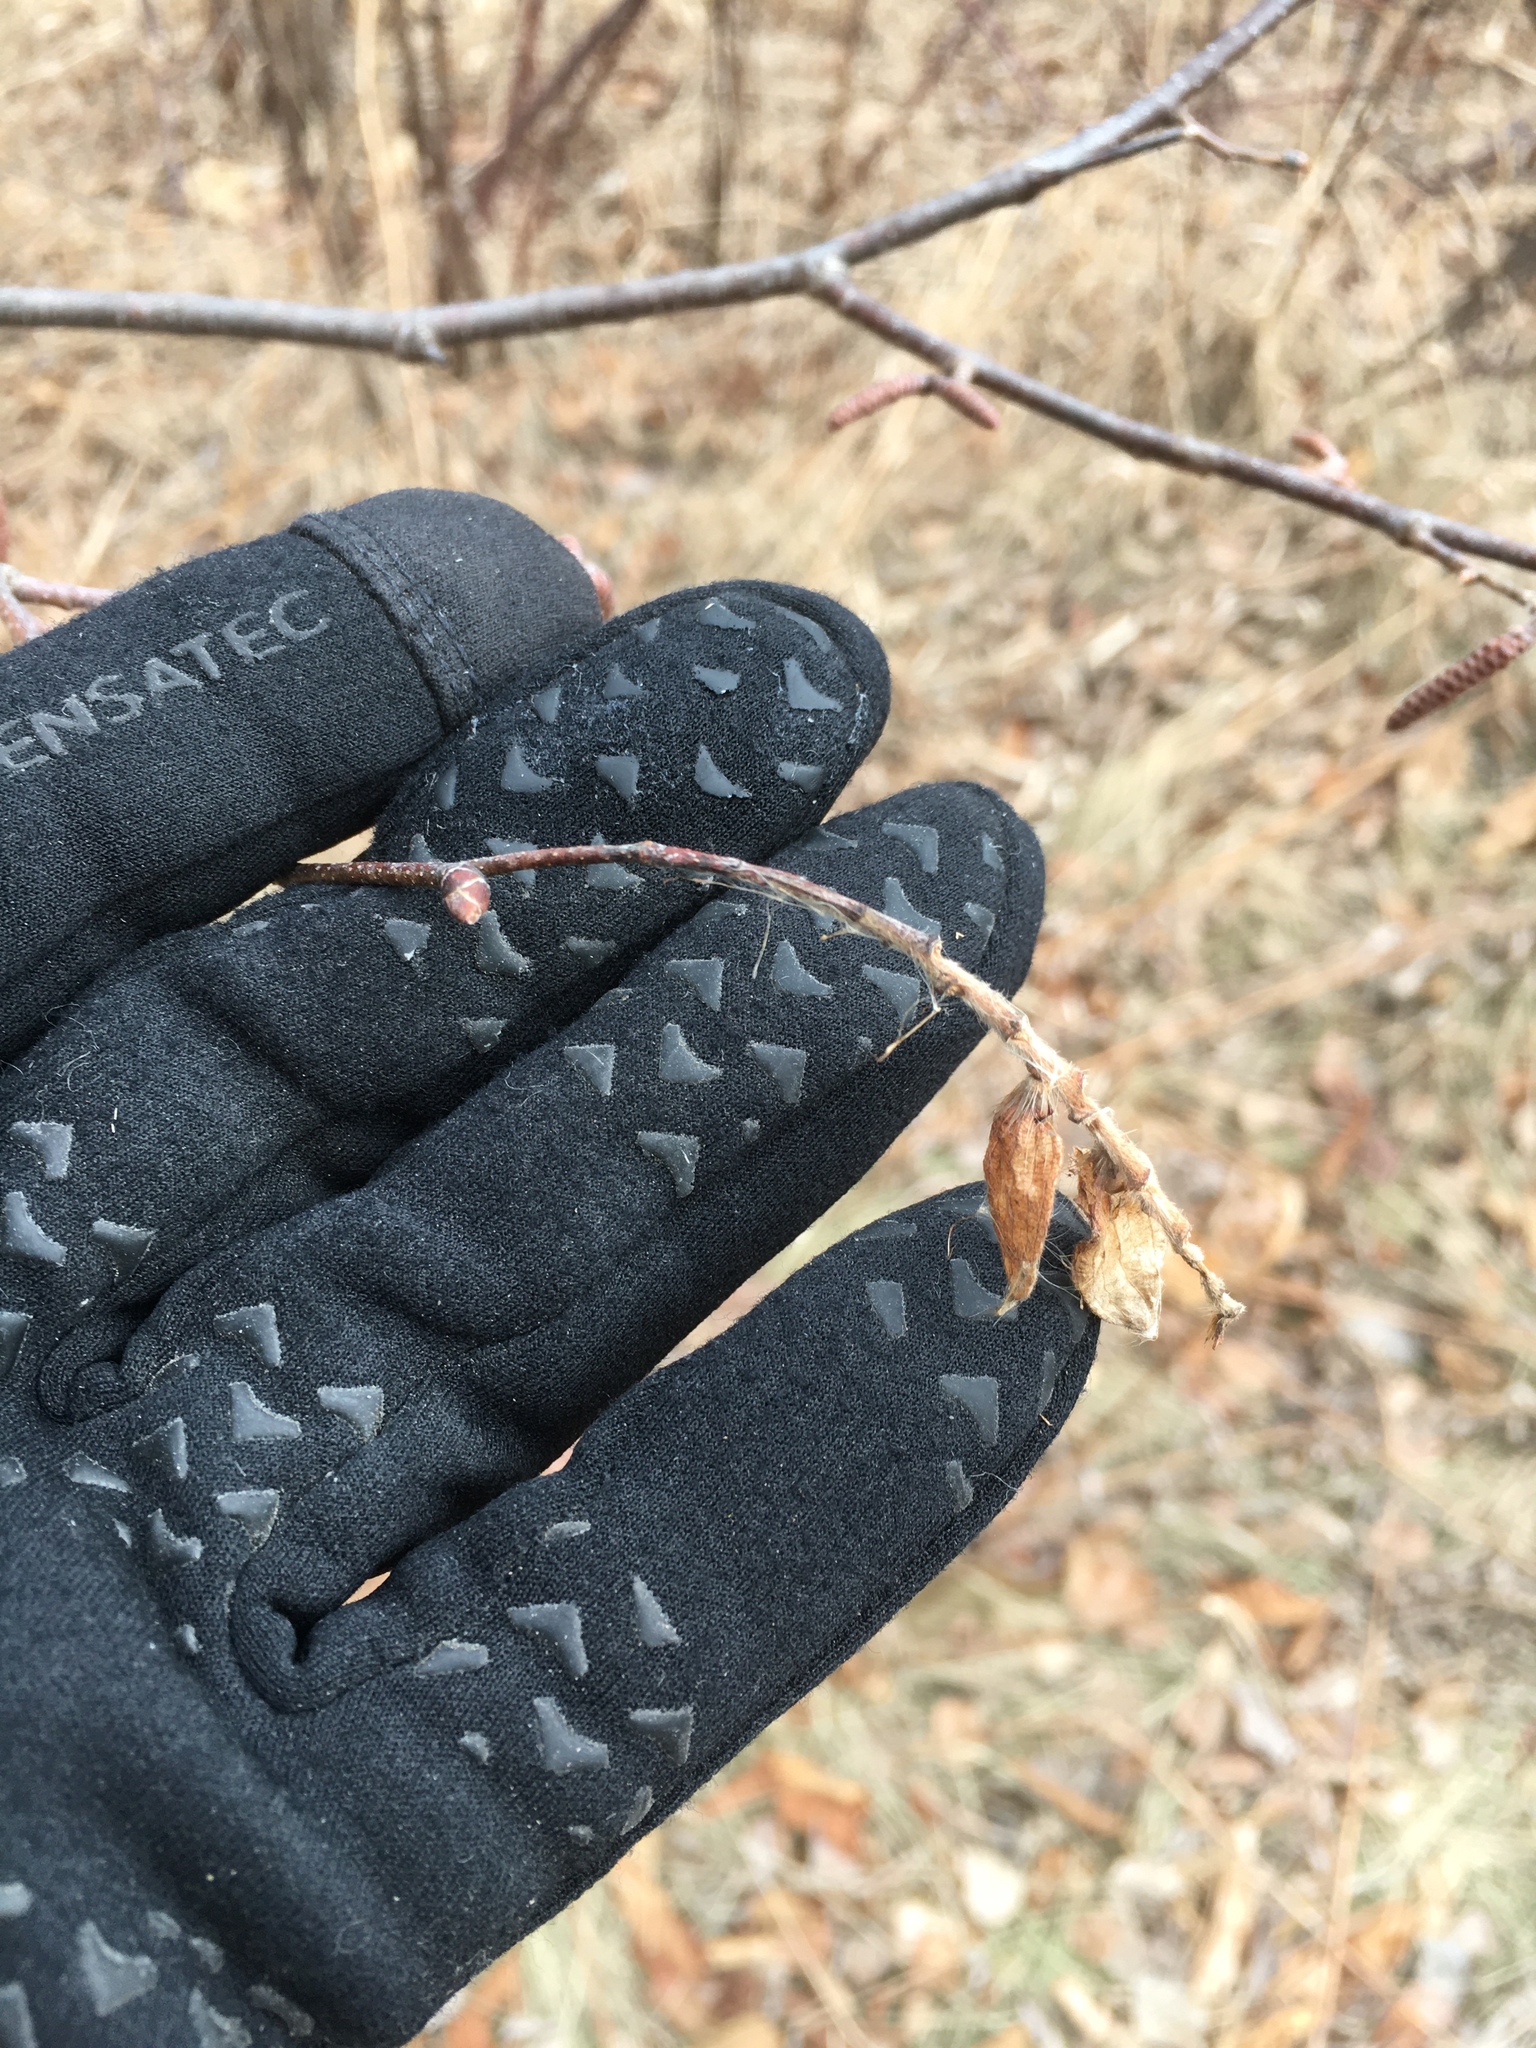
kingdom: Plantae
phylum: Tracheophyta
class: Magnoliopsida
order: Fagales
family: Betulaceae
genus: Ostrya
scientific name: Ostrya virginiana
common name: Ironwood
